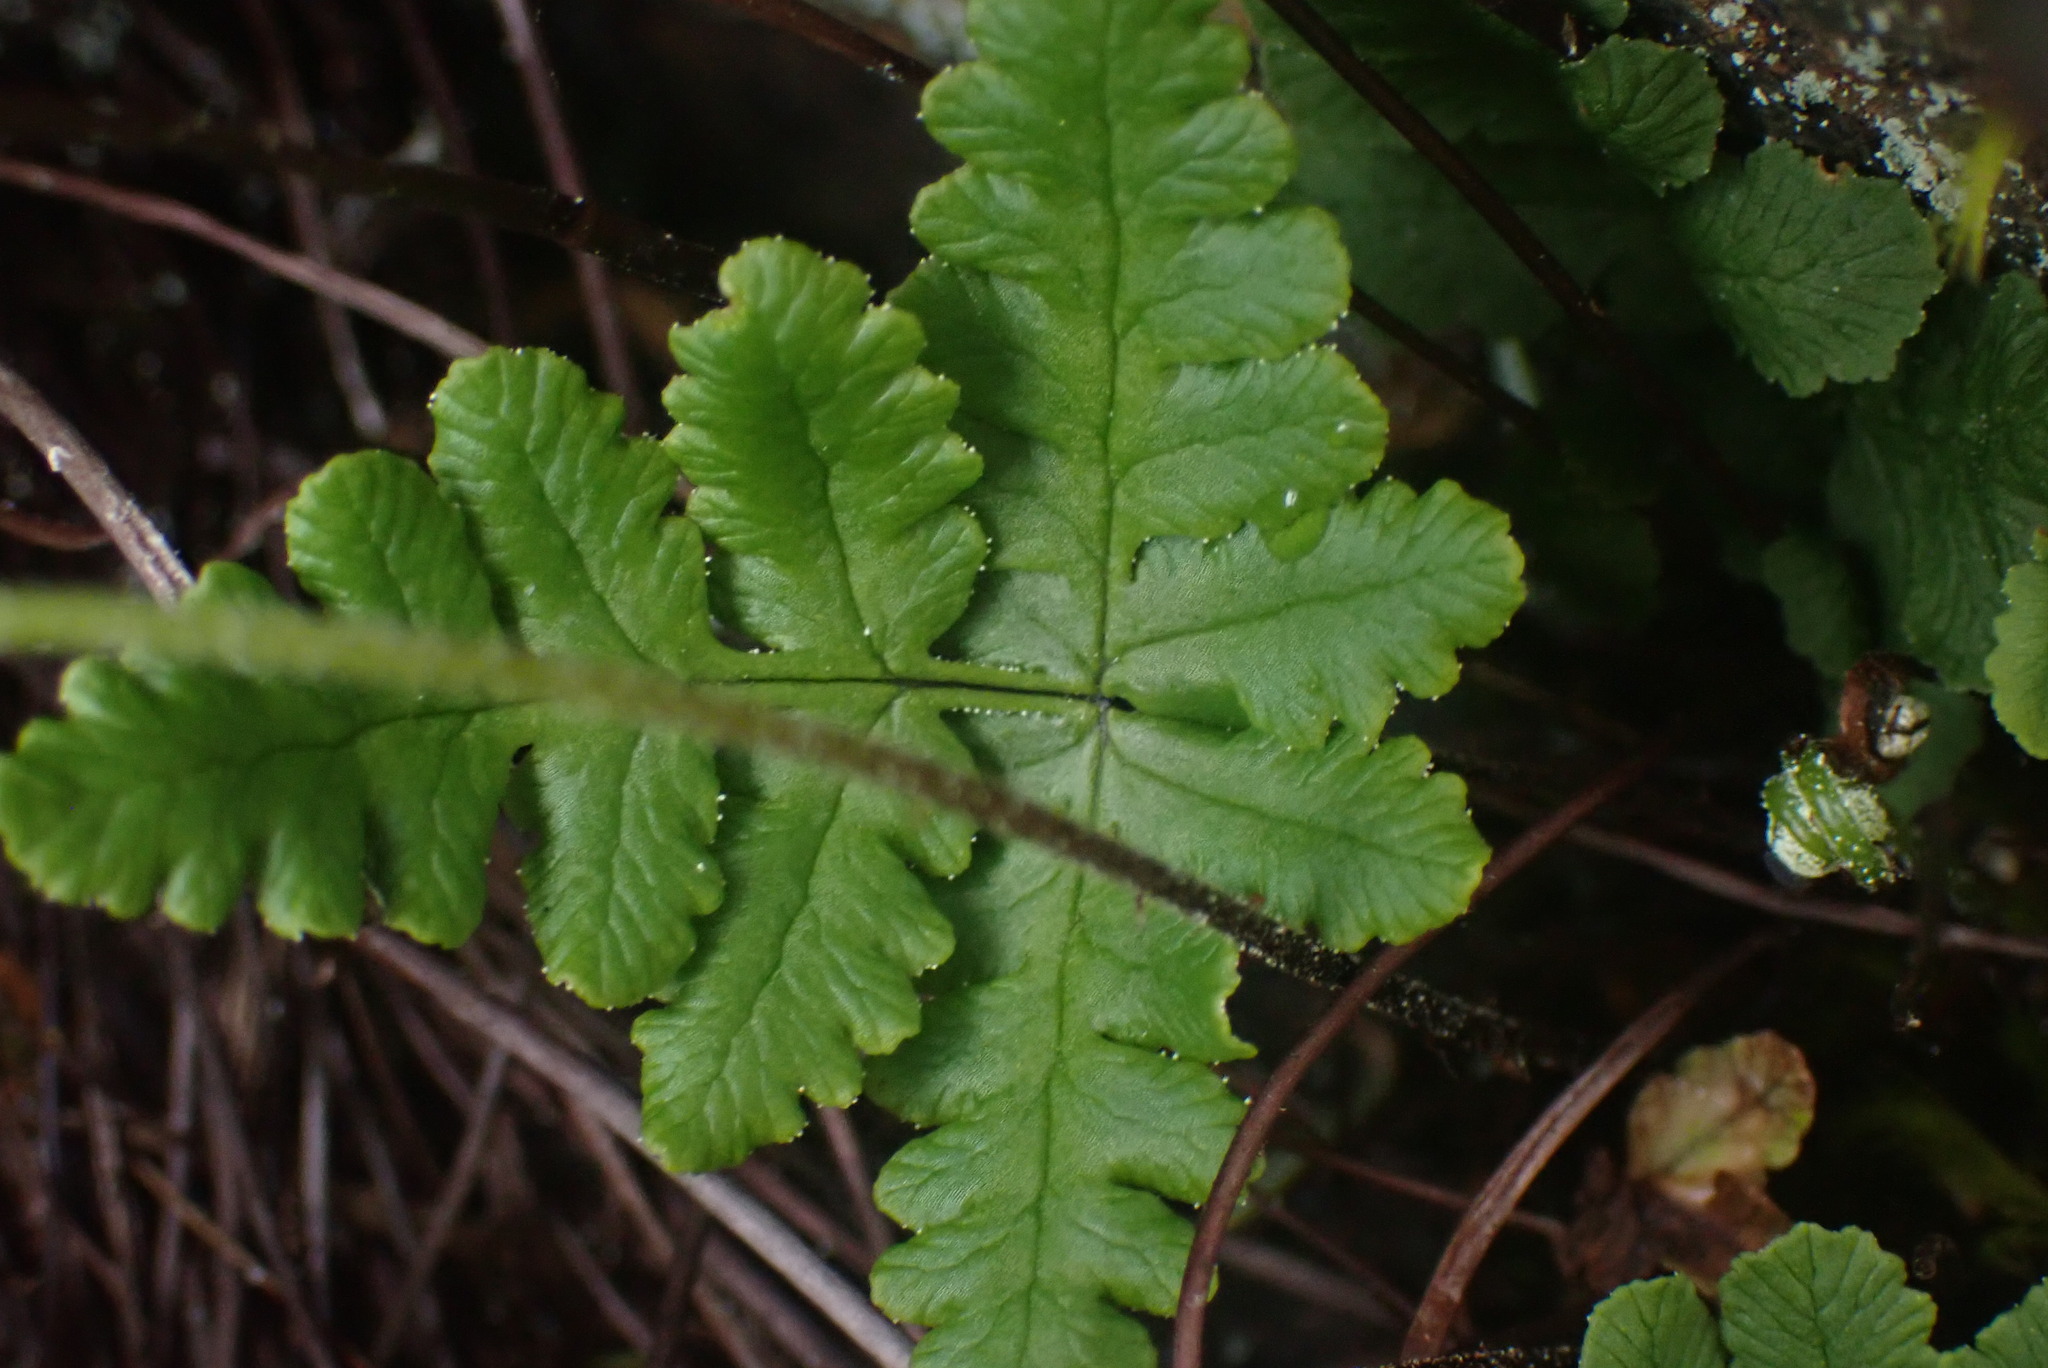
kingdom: Plantae
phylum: Tracheophyta
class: Polypodiopsida
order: Polypodiales
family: Pteridaceae
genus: Pentagramma
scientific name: Pentagramma triangularis
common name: Gold fern
